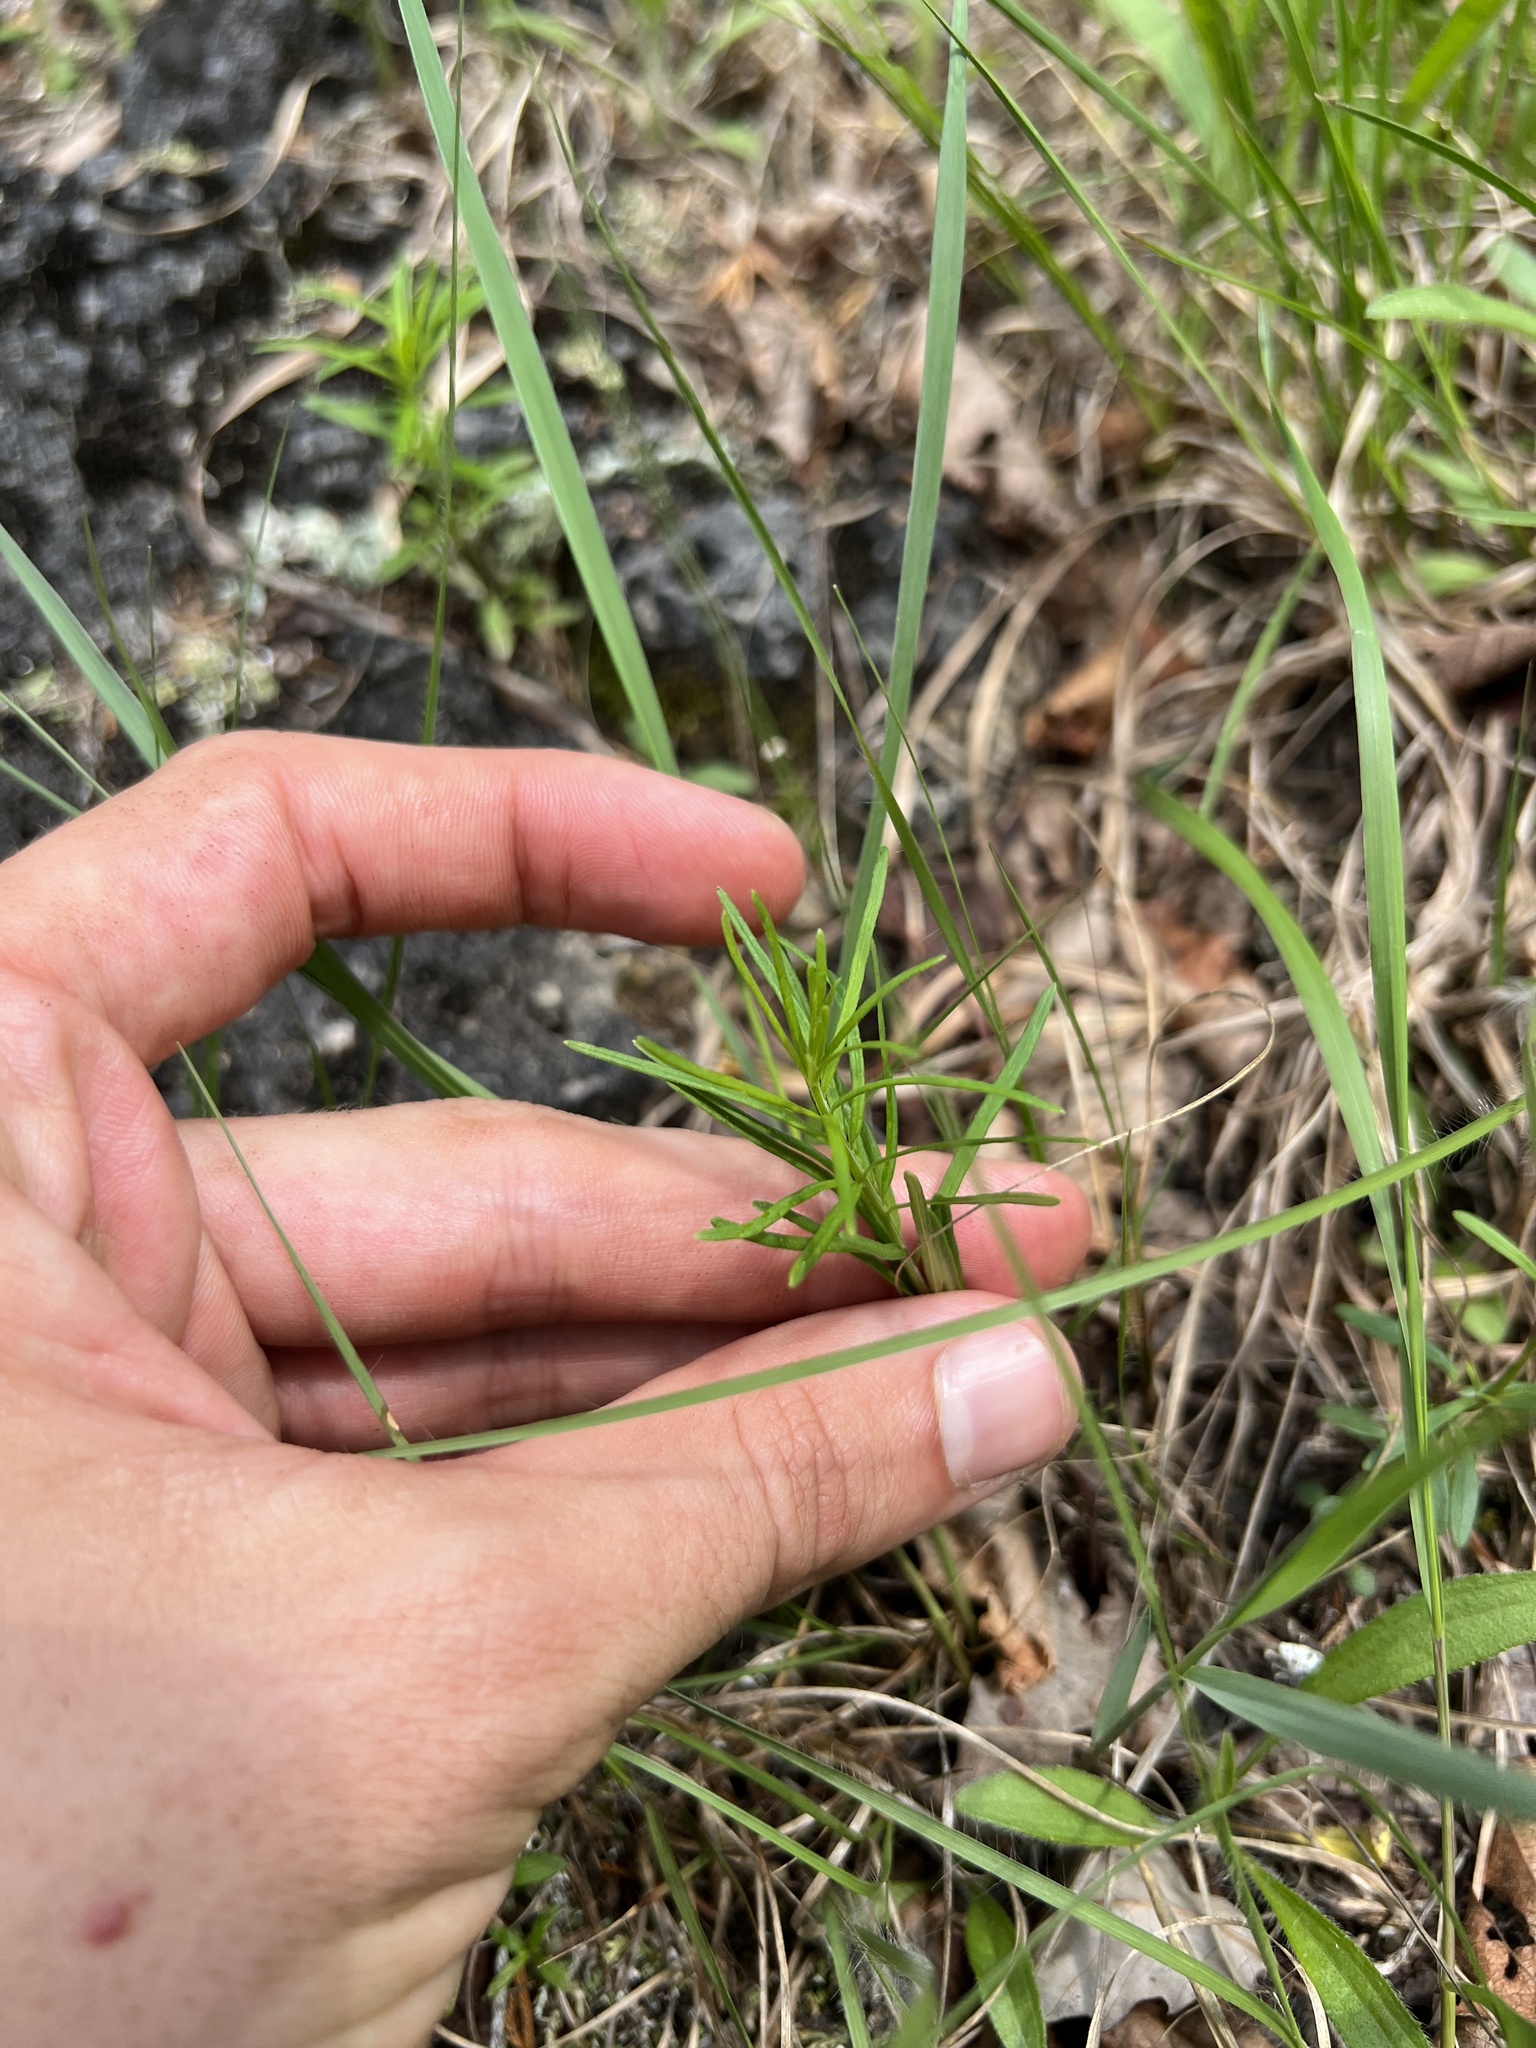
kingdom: Plantae
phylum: Tracheophyta
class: Magnoliopsida
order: Gentianales
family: Apocynaceae
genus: Asclepias
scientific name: Asclepias verticillata
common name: Eastern whorled milkweed
